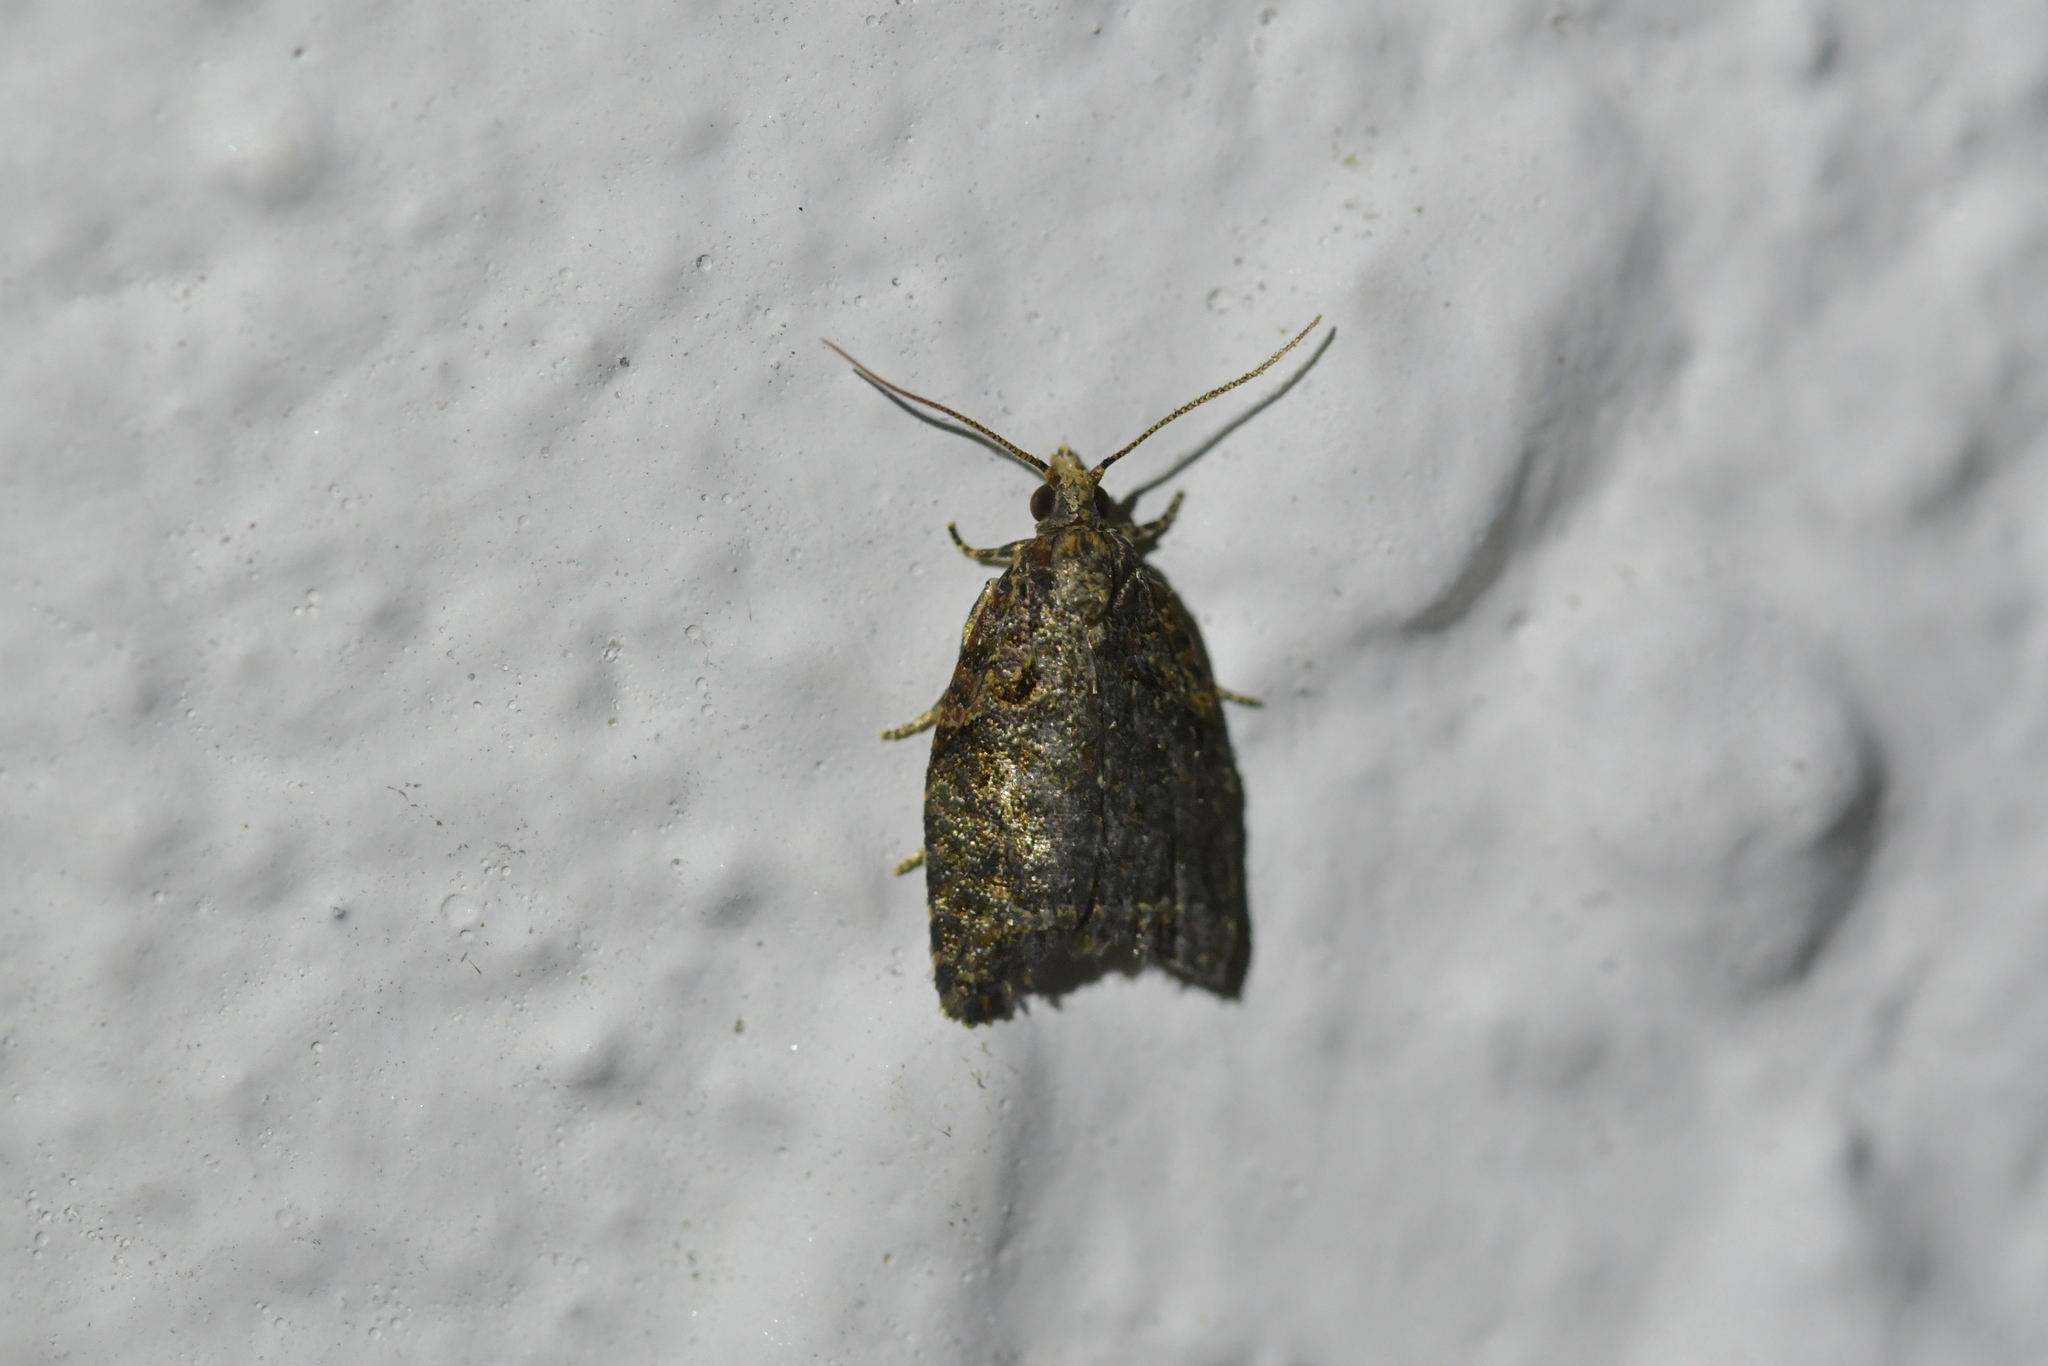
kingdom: Animalia
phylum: Arthropoda
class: Insecta
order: Lepidoptera
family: Tortricidae
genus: Capua
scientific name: Capua intractana
